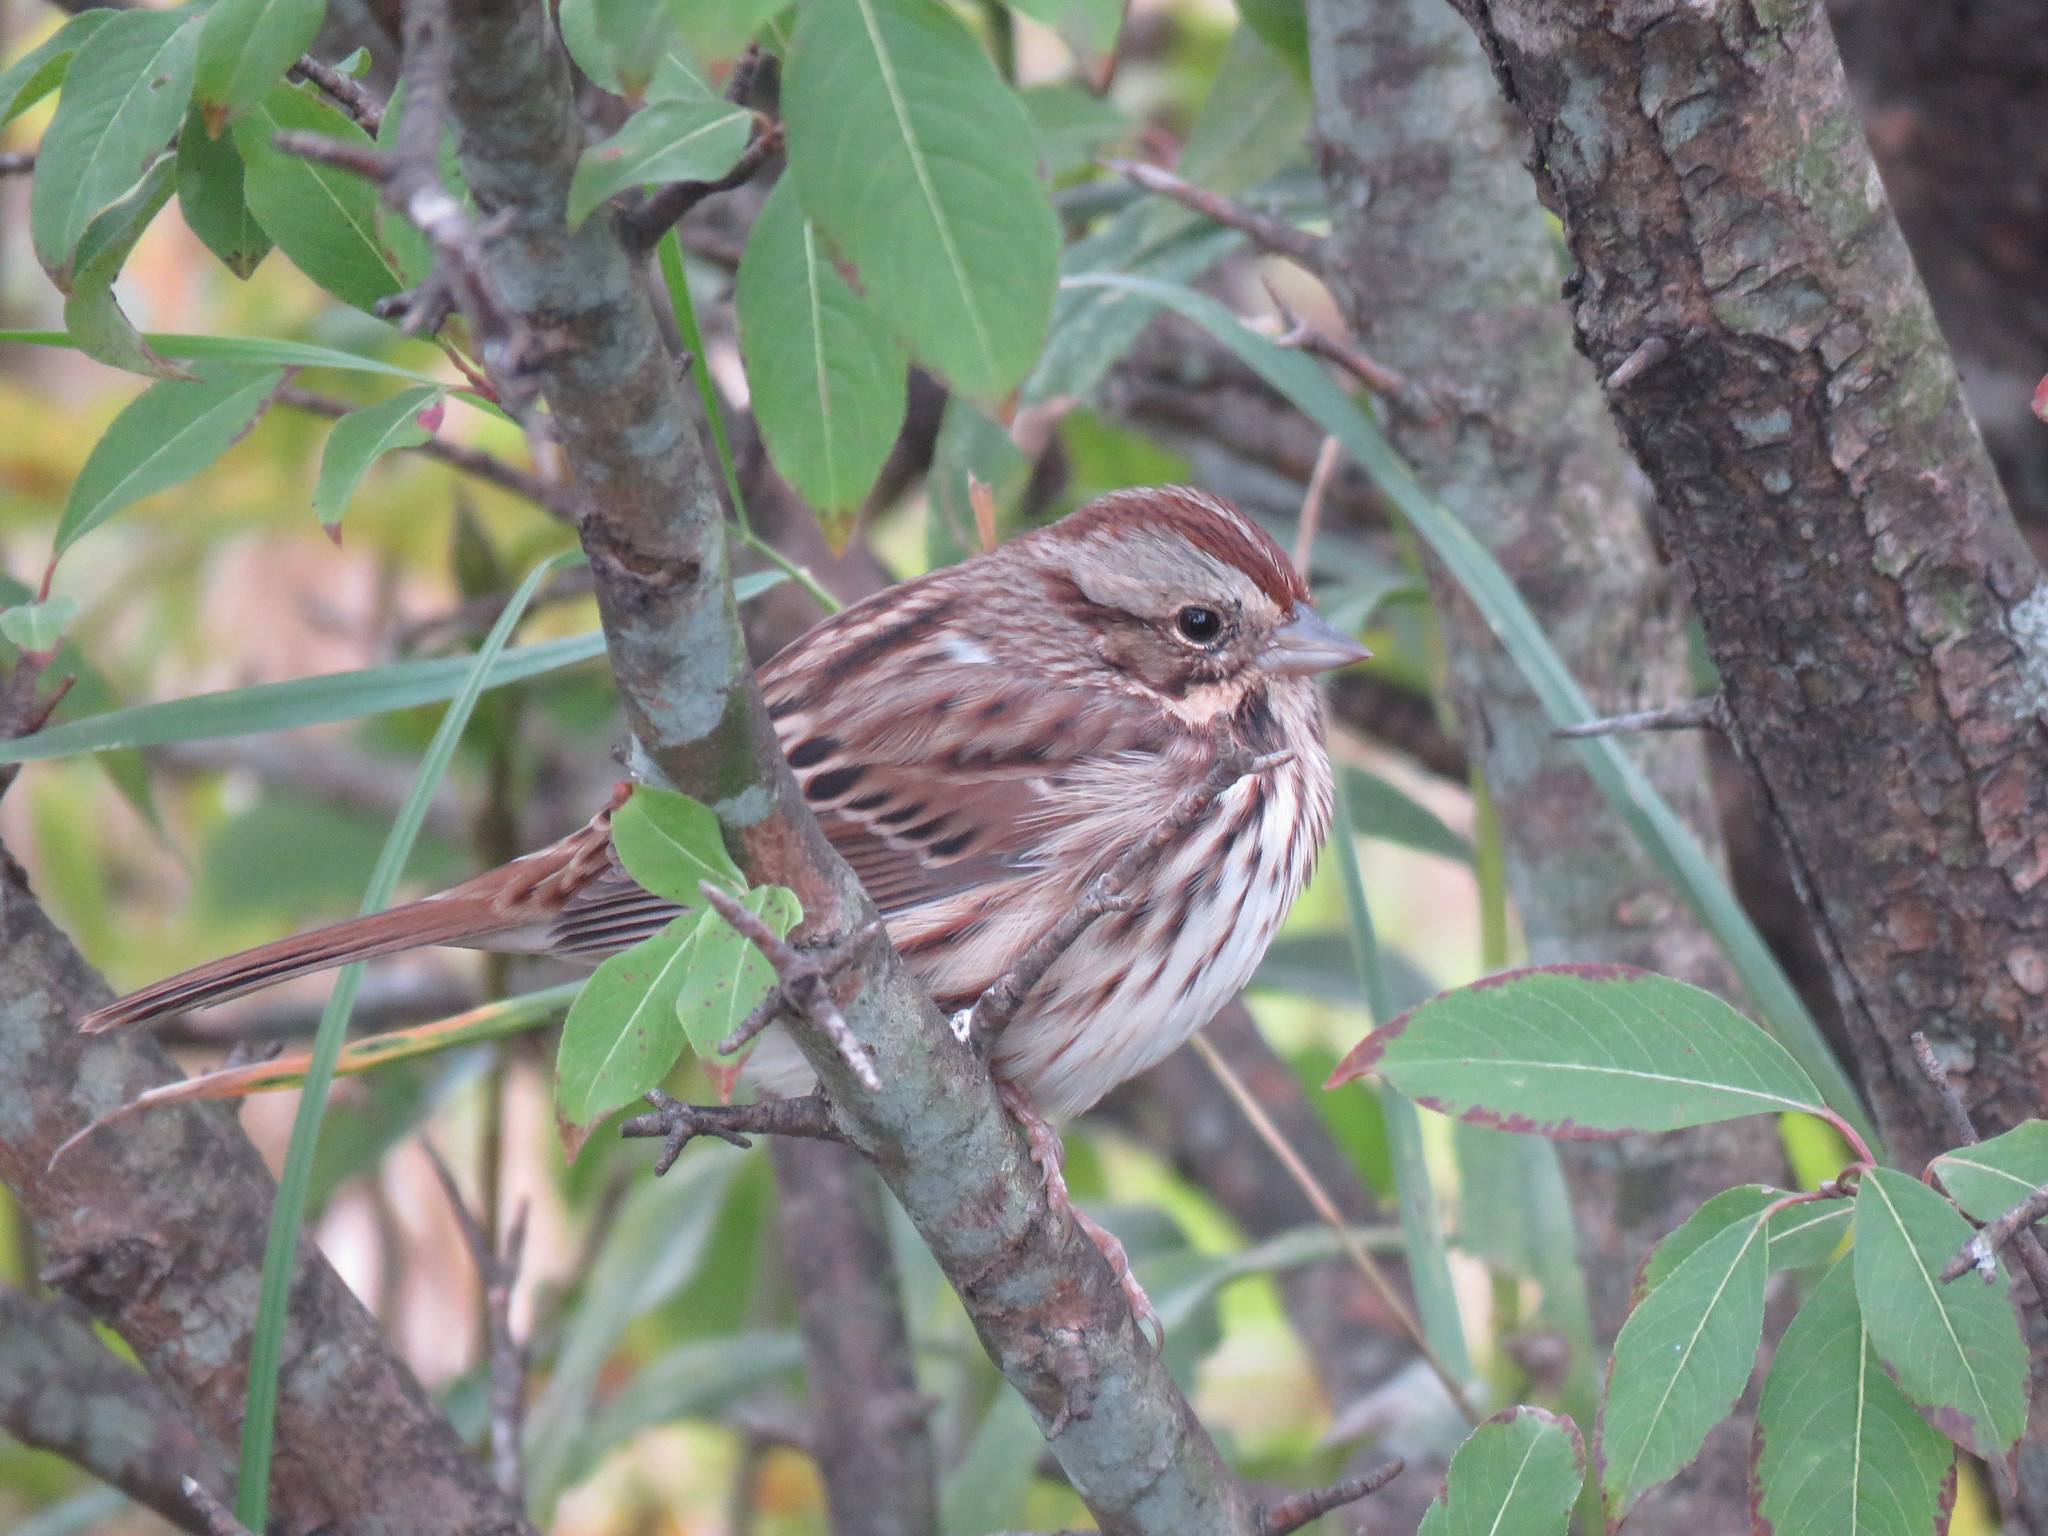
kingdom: Animalia
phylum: Chordata
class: Aves
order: Passeriformes
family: Passerellidae
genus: Melospiza
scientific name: Melospiza melodia
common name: Song sparrow
